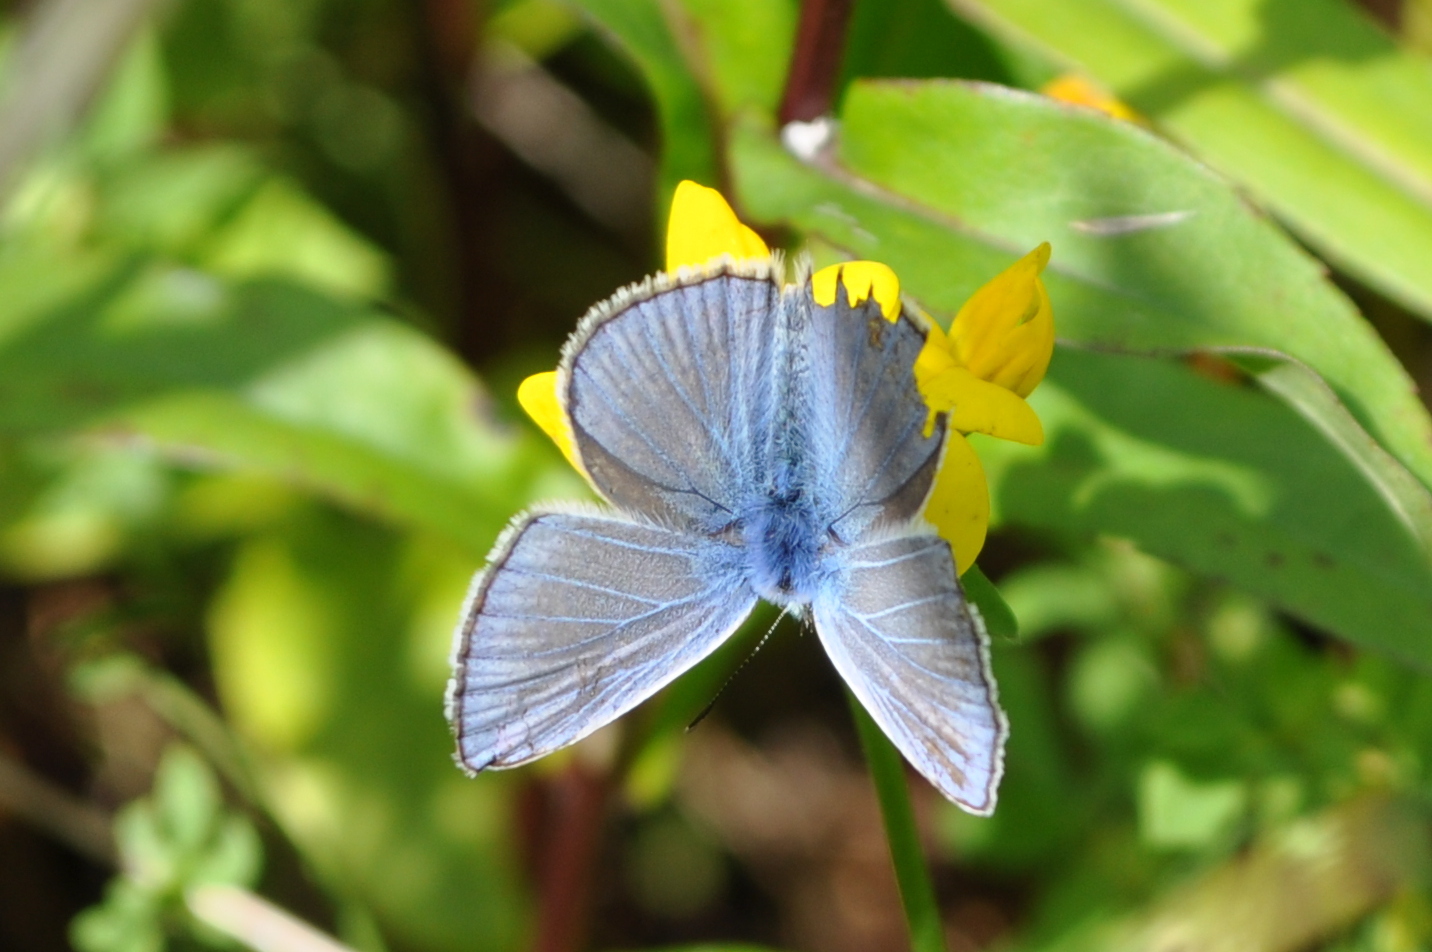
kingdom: Animalia
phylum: Arthropoda
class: Insecta
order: Lepidoptera
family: Lycaenidae
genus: Polyommatus
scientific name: Polyommatus icarus
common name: Common blue
